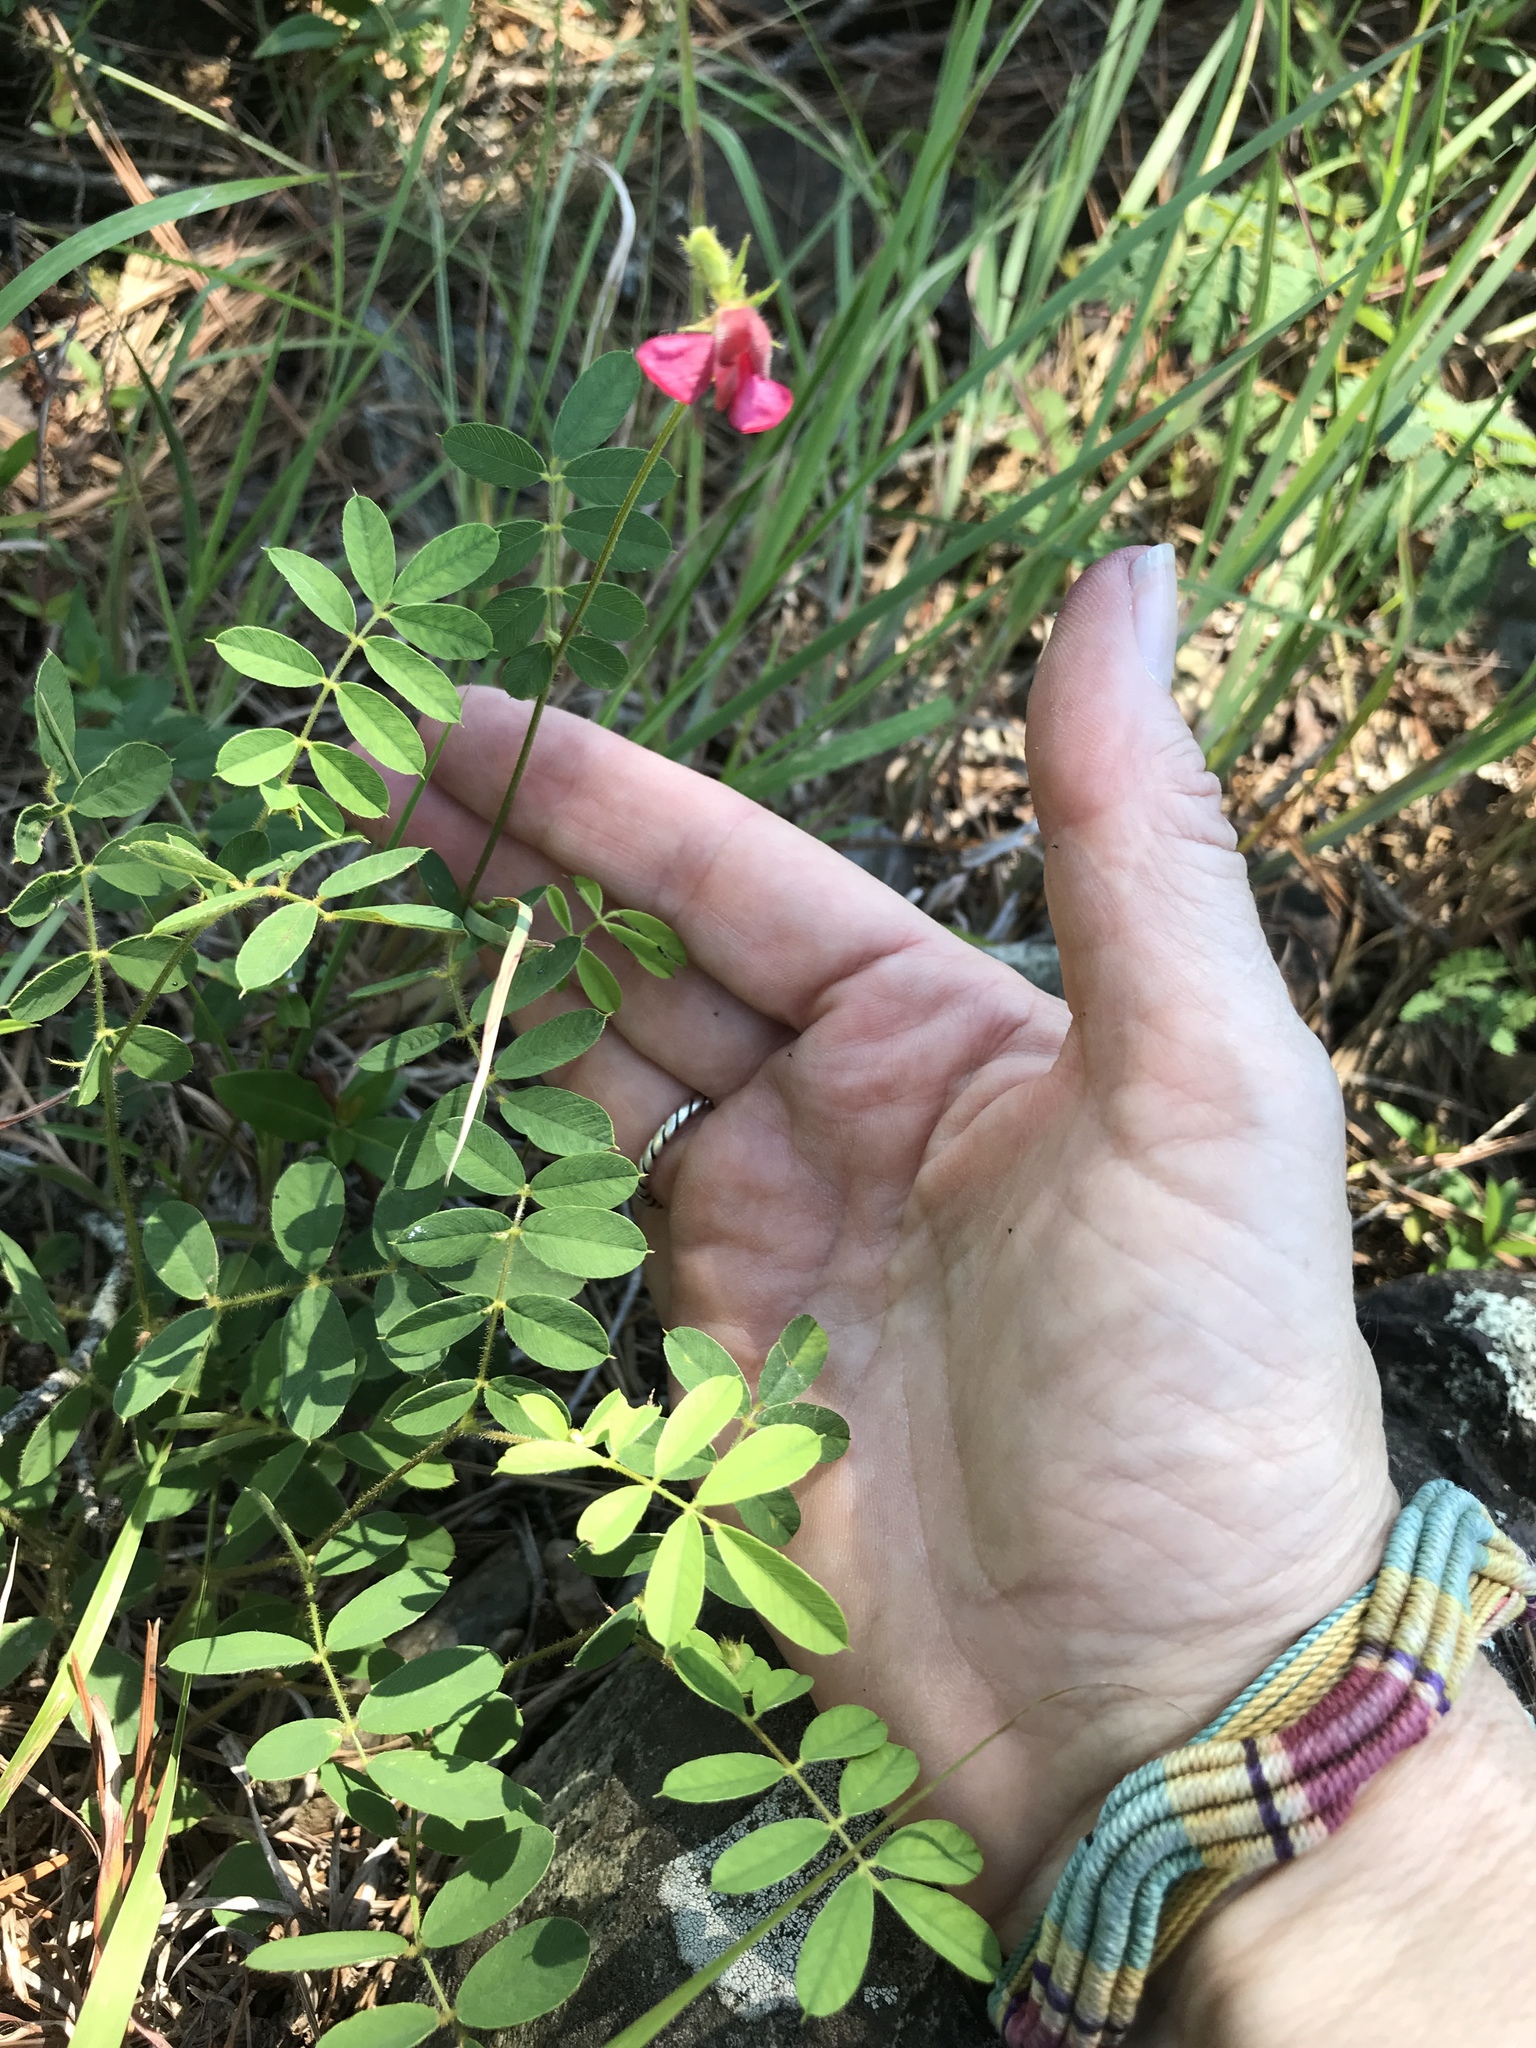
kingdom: Plantae
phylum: Tracheophyta
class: Magnoliopsida
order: Fabales
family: Fabaceae
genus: Tephrosia
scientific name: Tephrosia spicata
